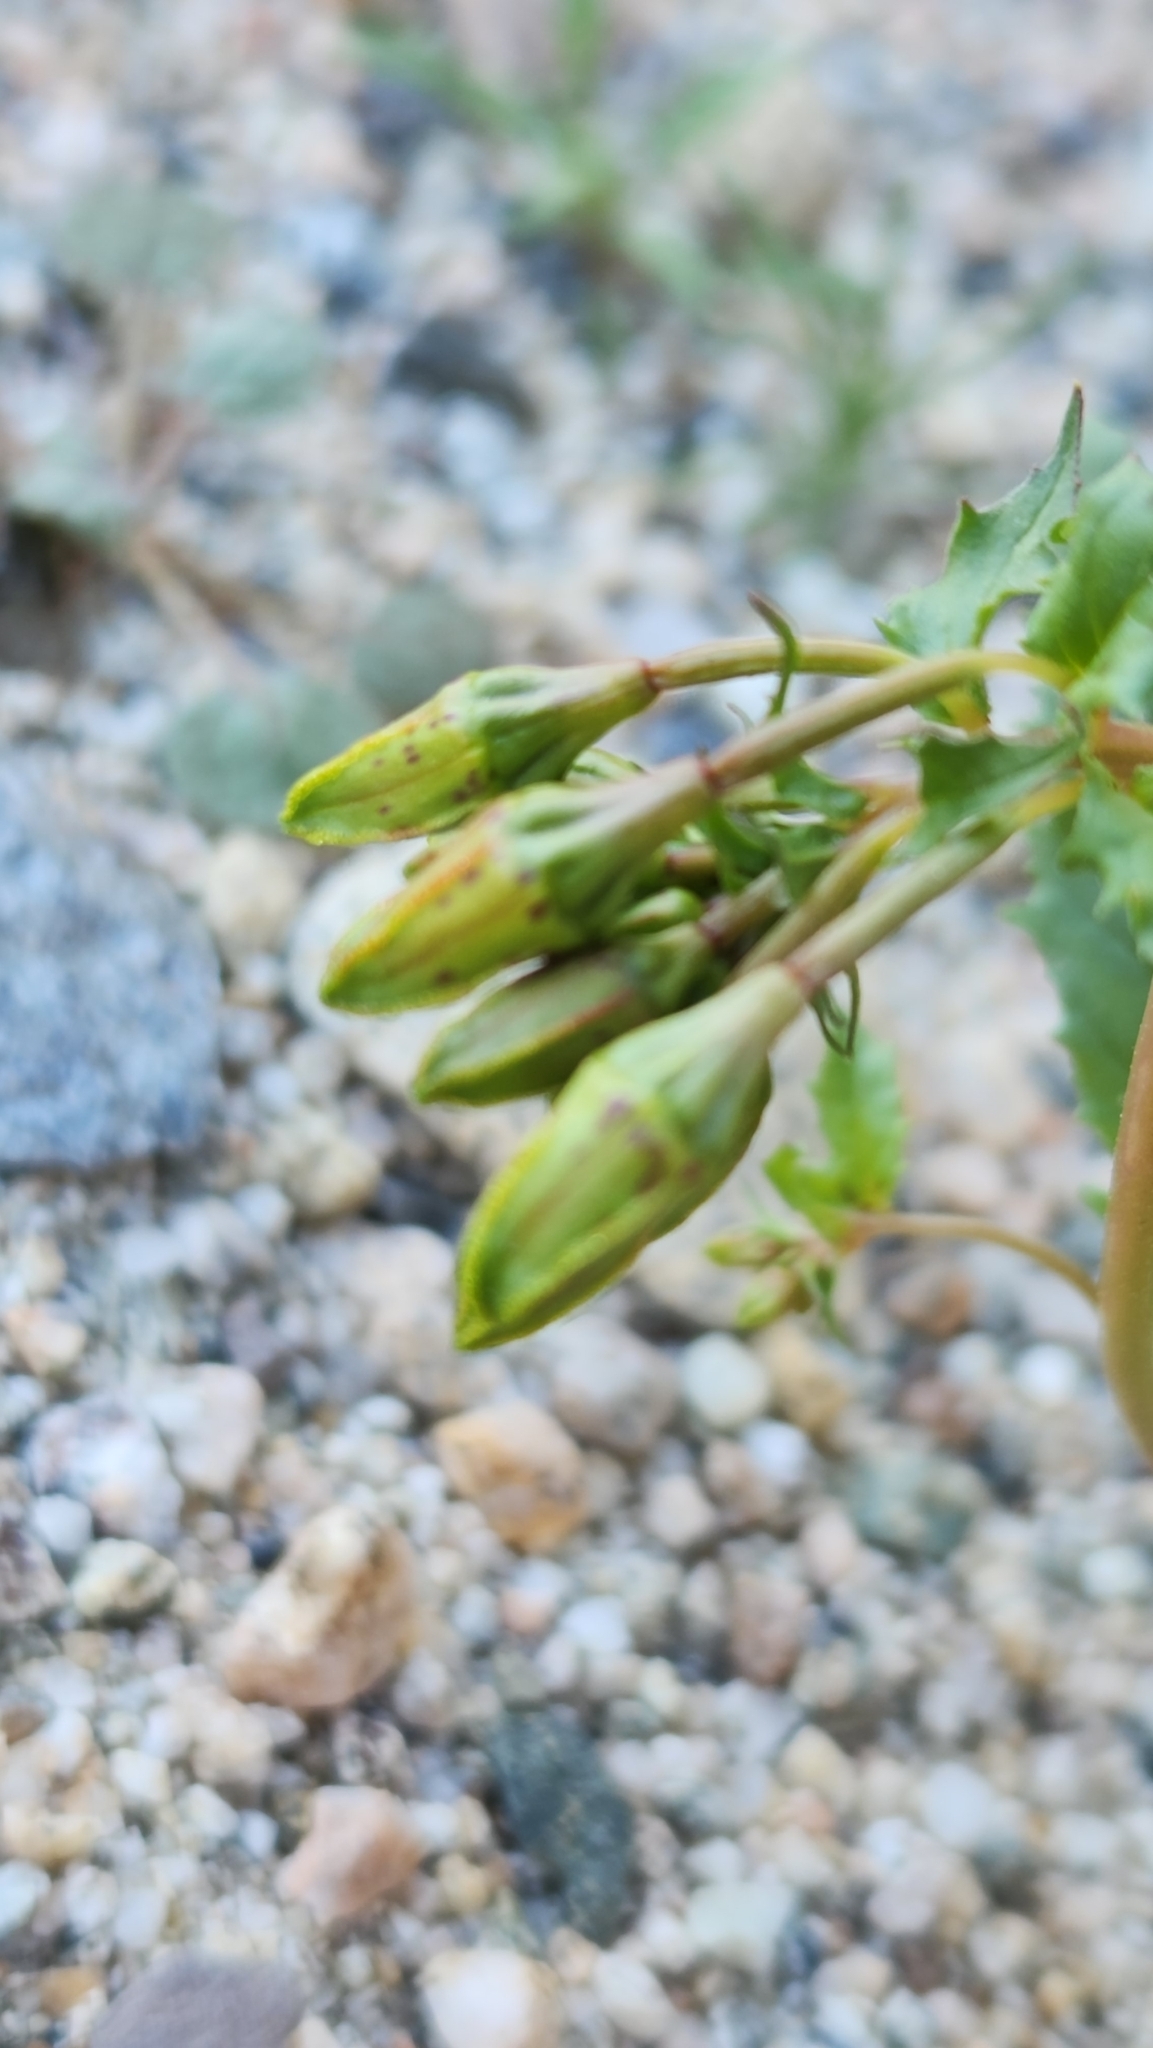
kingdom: Plantae
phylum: Tracheophyta
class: Magnoliopsida
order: Myrtales
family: Onagraceae
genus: Chylismia
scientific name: Chylismia claviformis
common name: Browneyes
